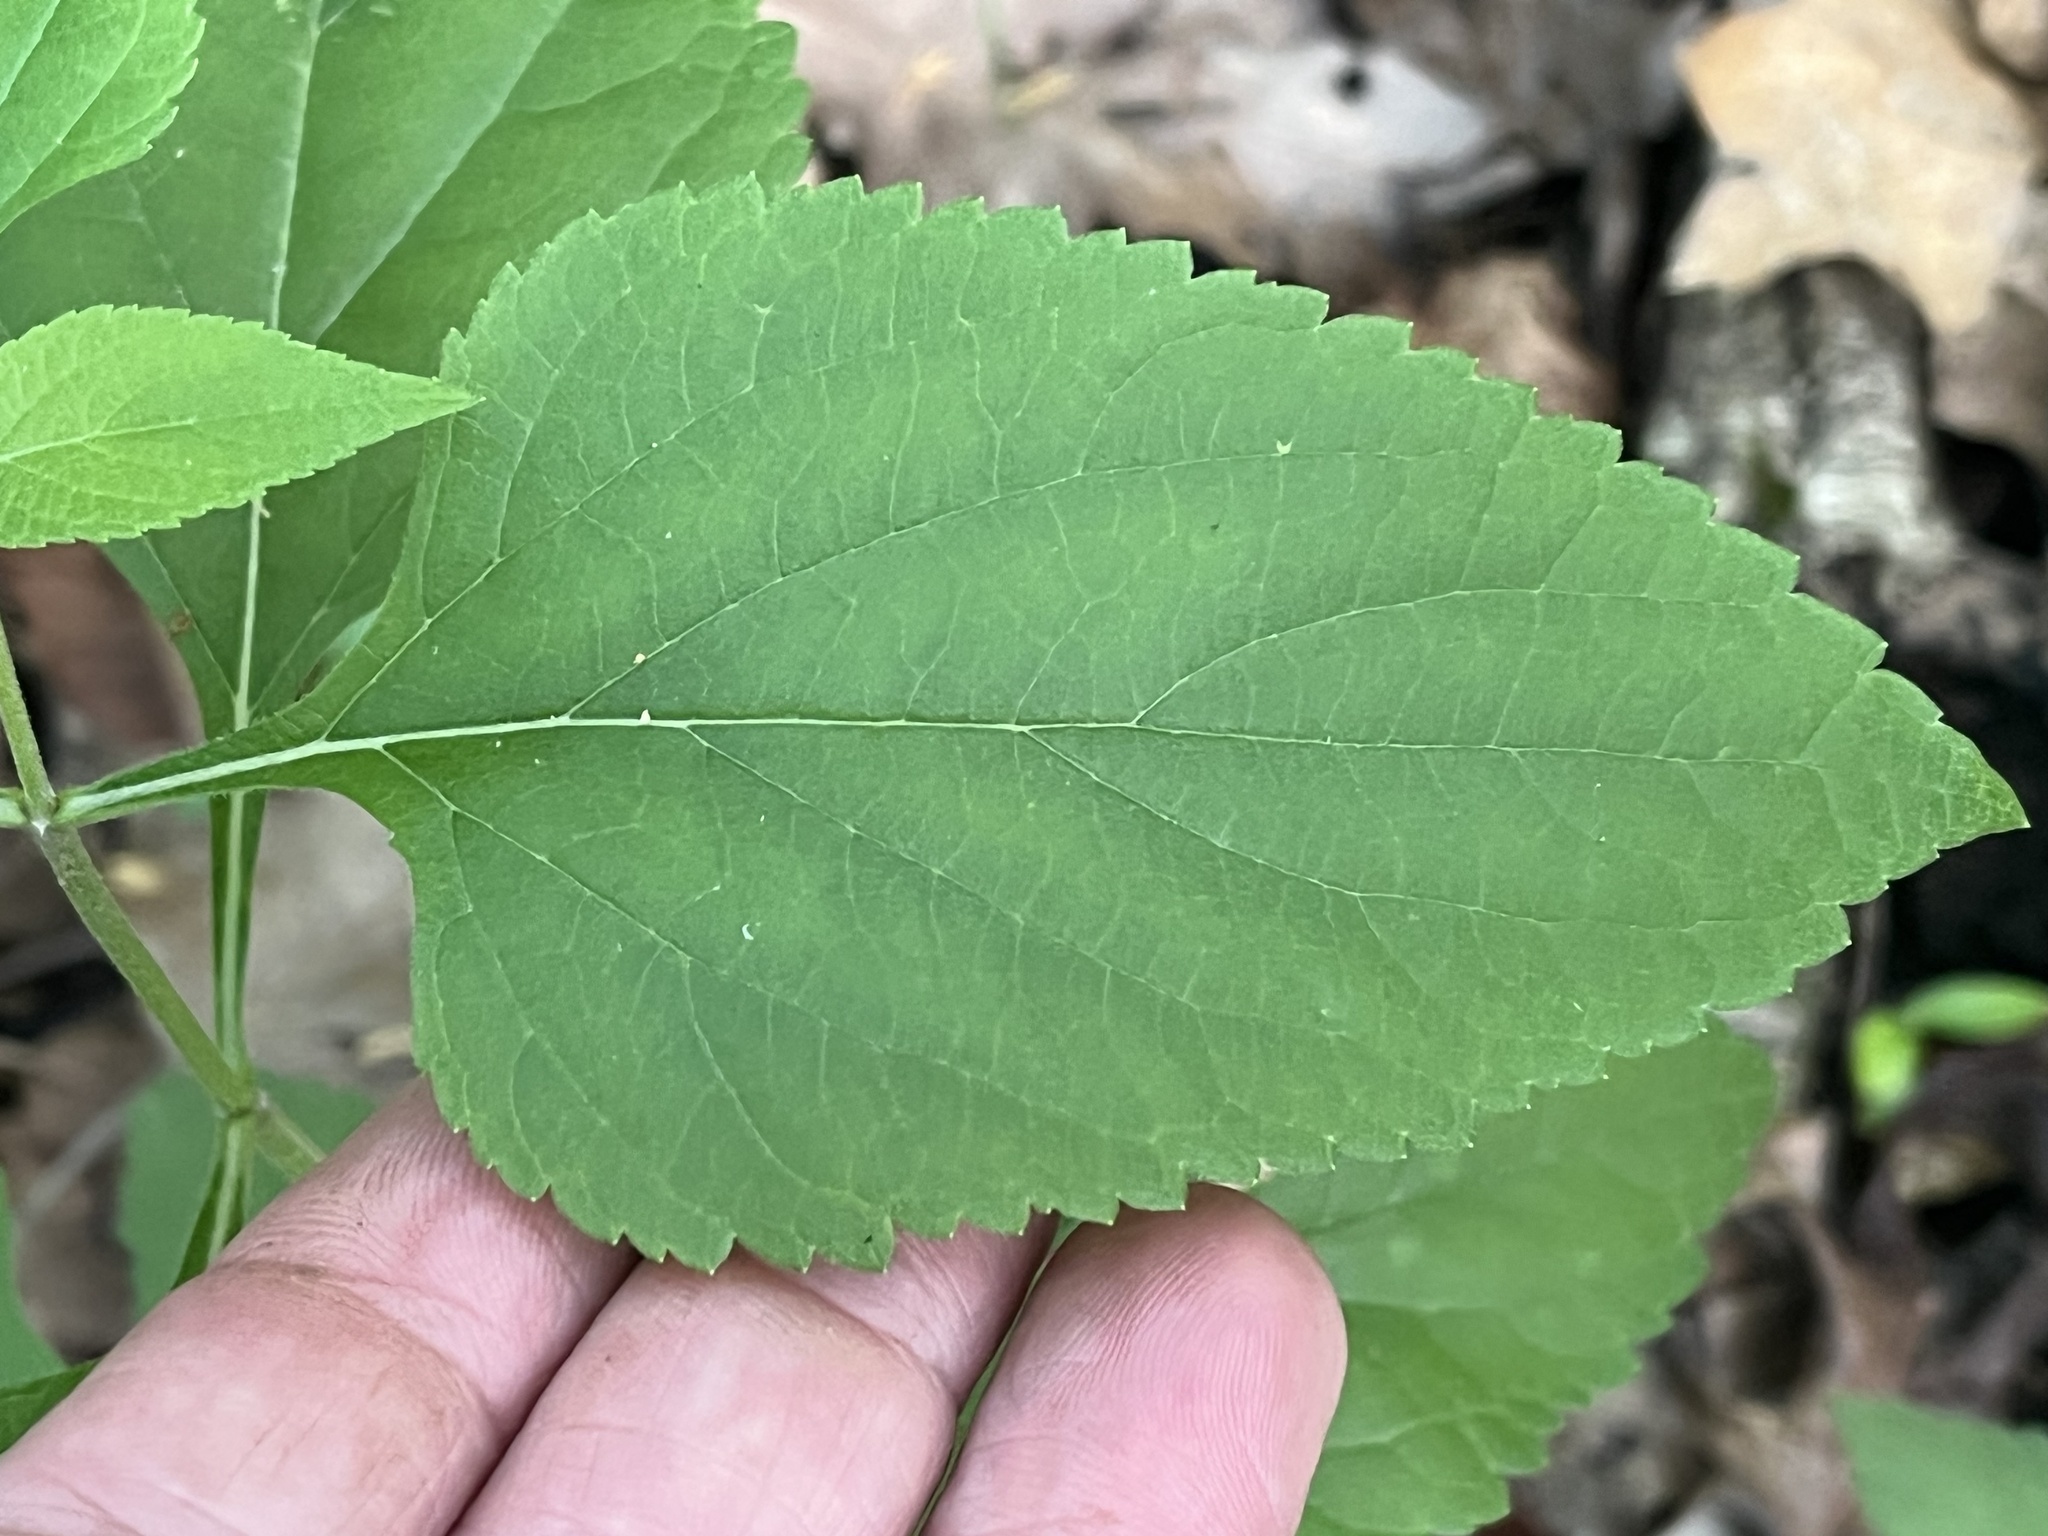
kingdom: Plantae
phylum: Tracheophyta
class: Magnoliopsida
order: Lamiales
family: Lamiaceae
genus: Salvia
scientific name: Salvia urticifolia
